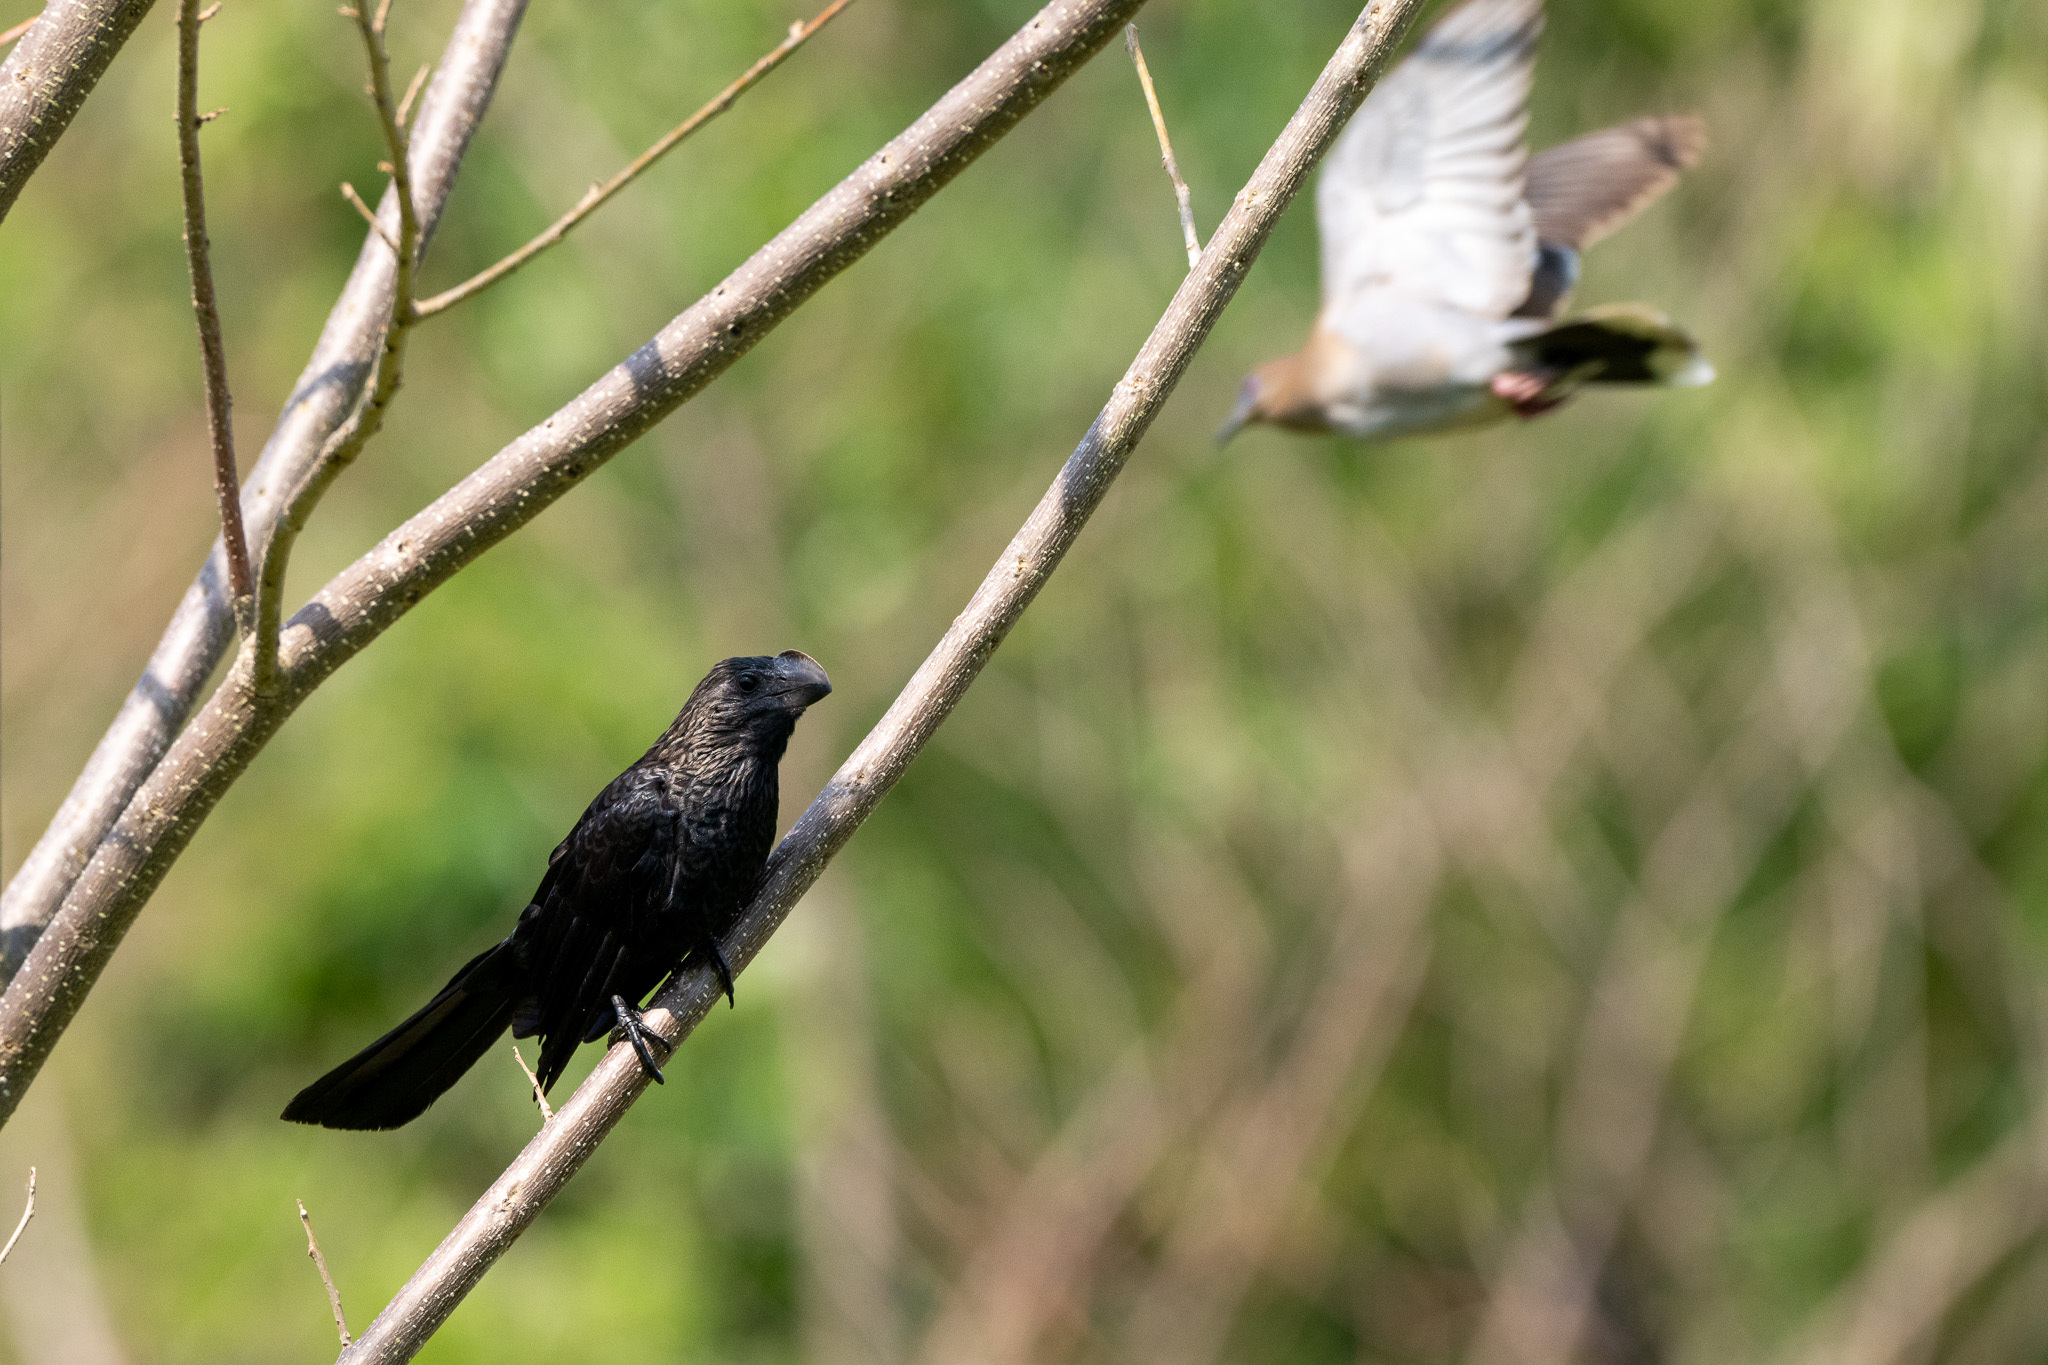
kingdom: Animalia
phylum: Chordata
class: Aves
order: Columbiformes
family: Columbidae
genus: Zenaida
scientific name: Zenaida asiatica
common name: White-winged dove
